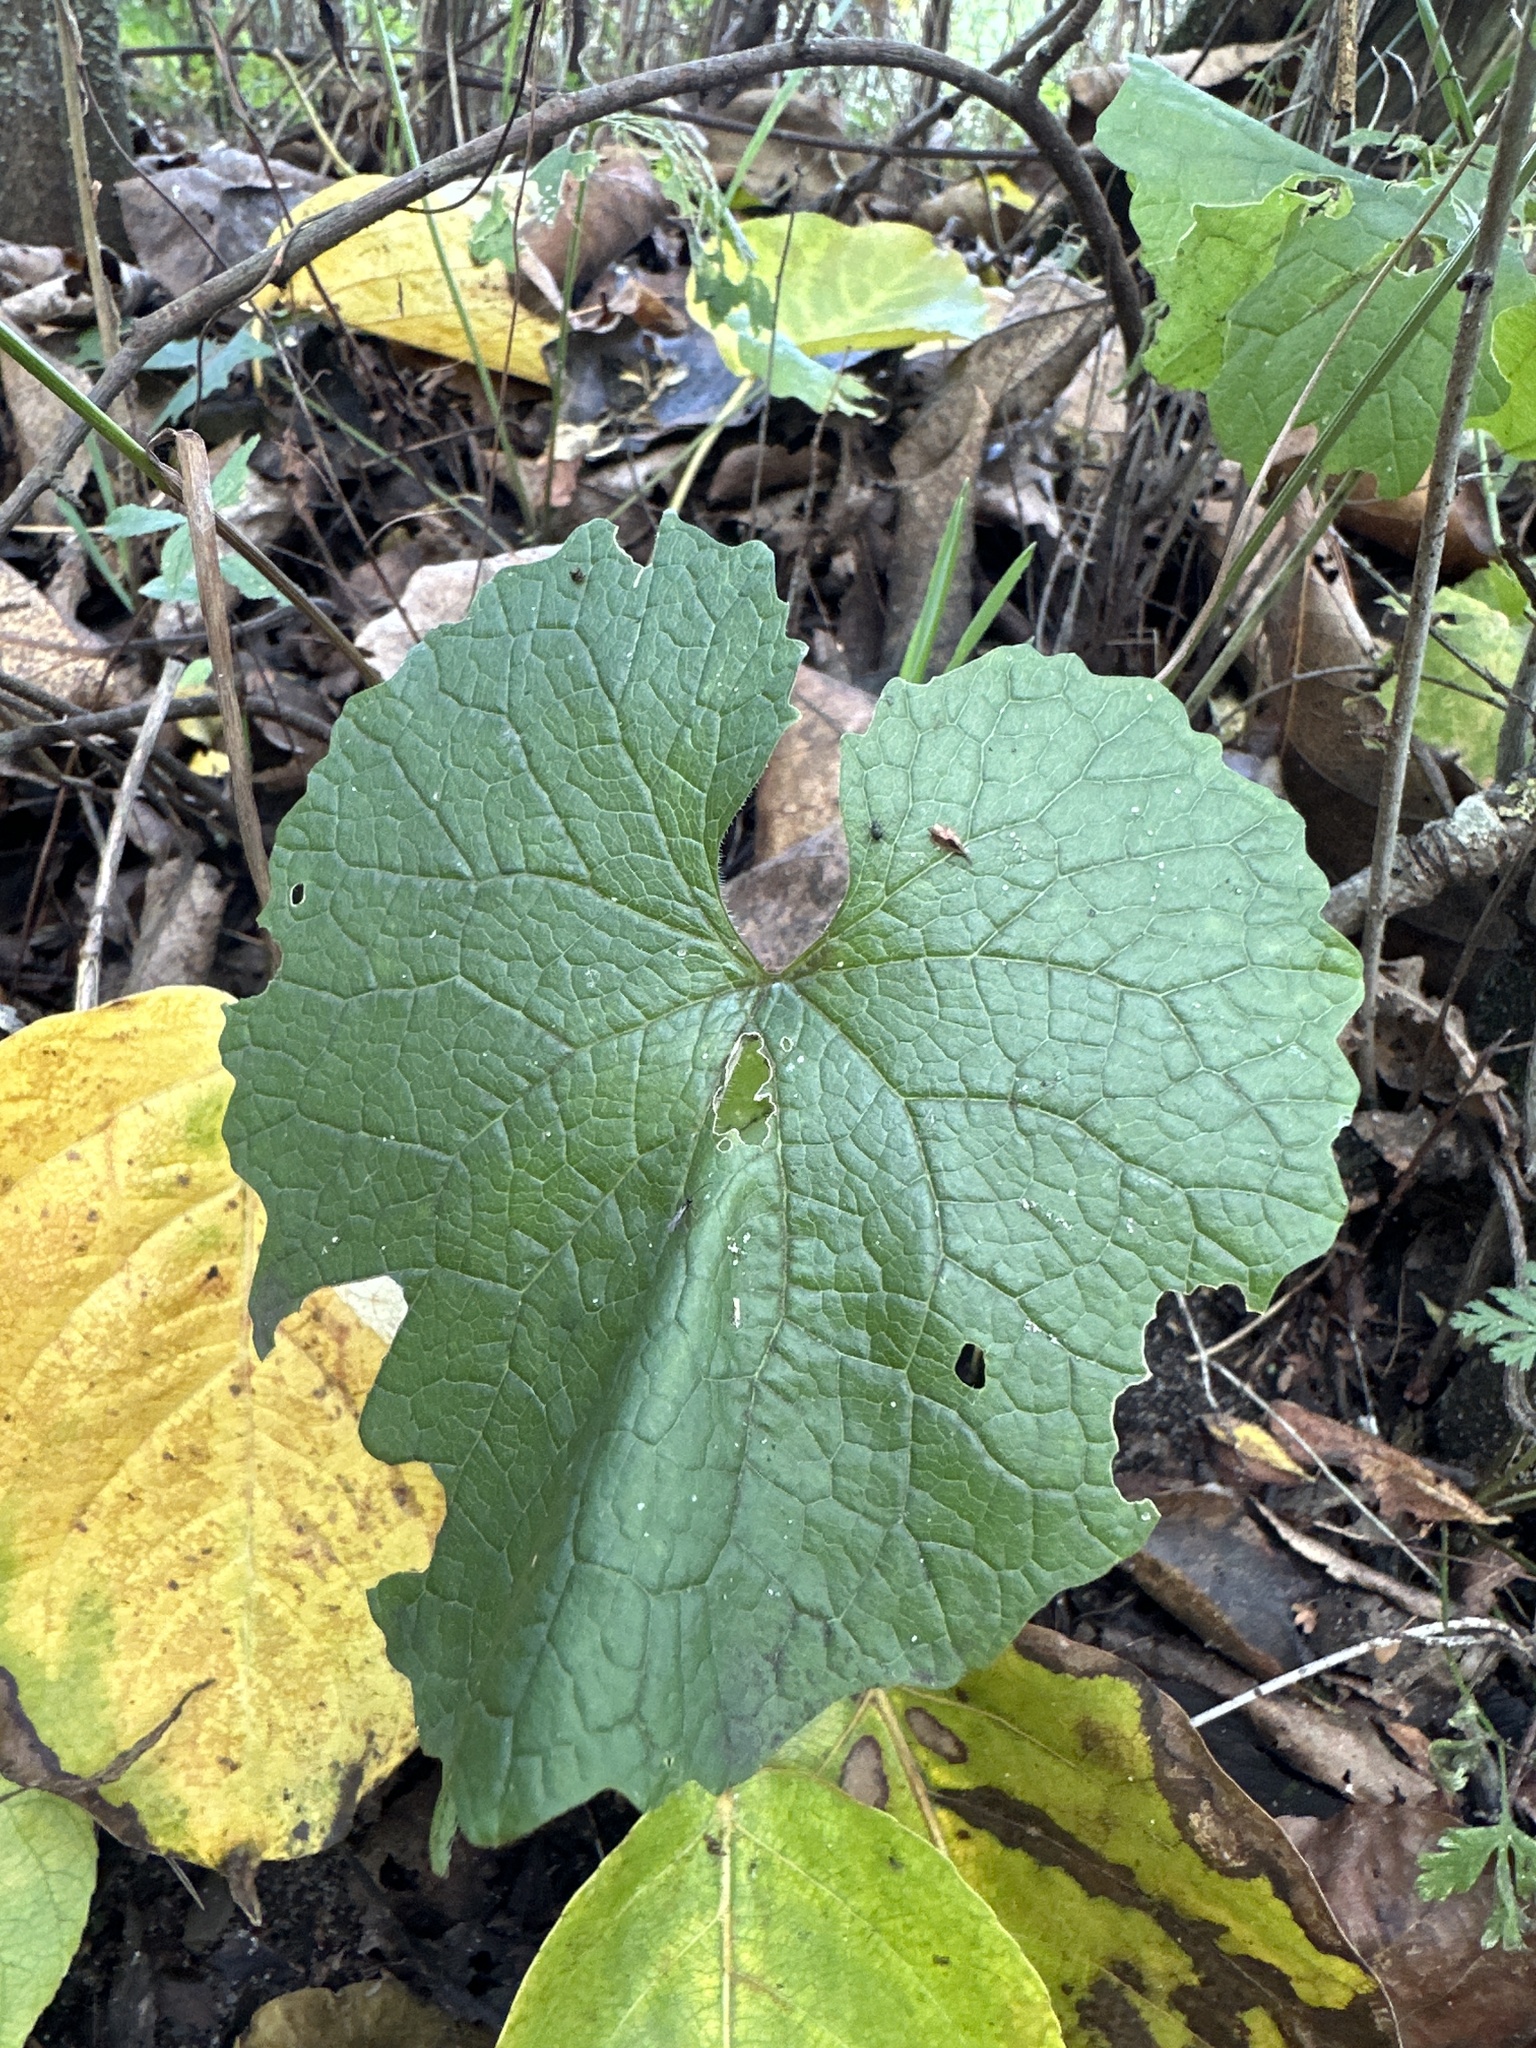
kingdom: Plantae
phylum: Tracheophyta
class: Magnoliopsida
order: Brassicales
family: Brassicaceae
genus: Alliaria
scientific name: Alliaria petiolata
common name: Garlic mustard
